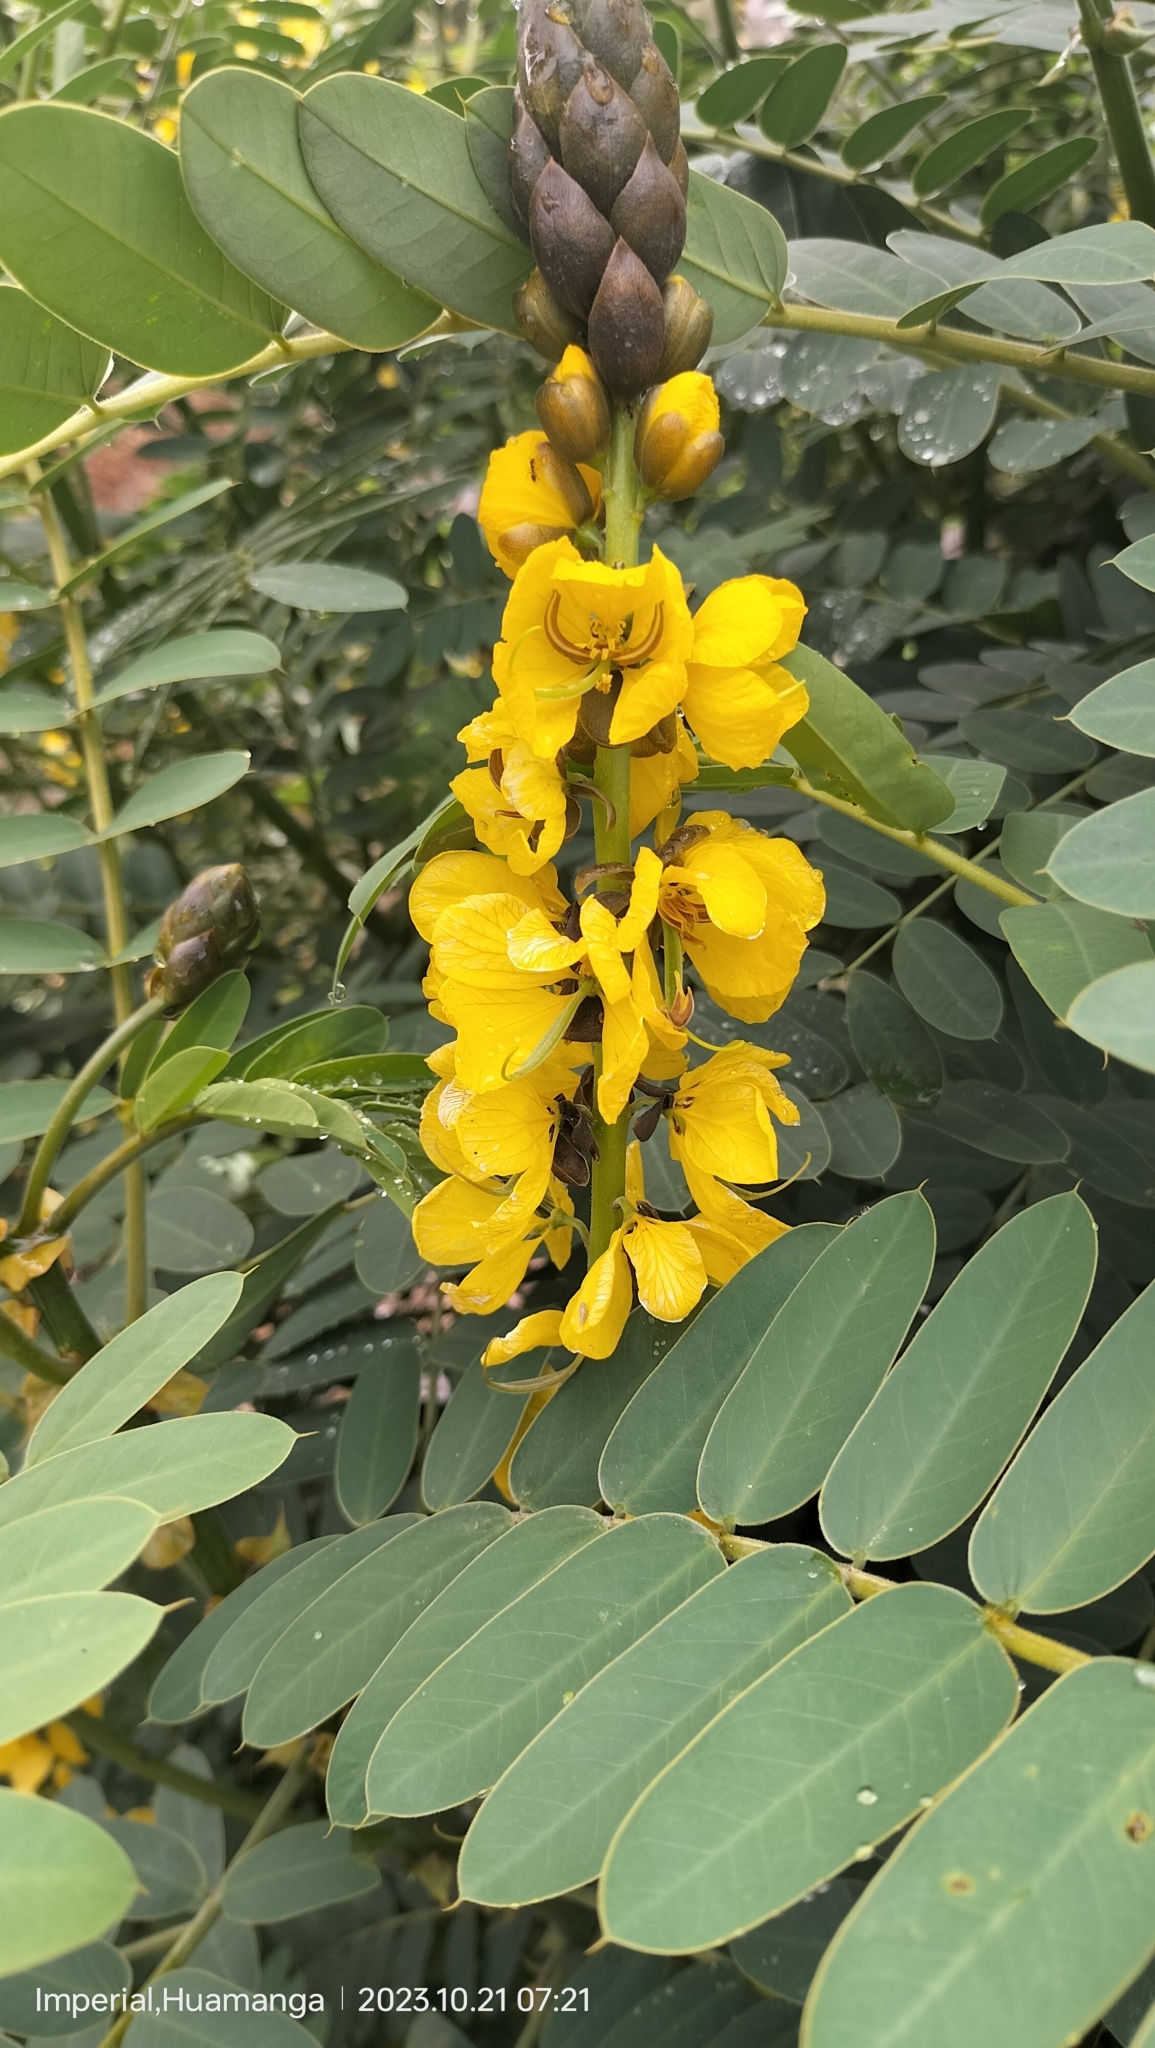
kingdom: Plantae
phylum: Tracheophyta
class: Magnoliopsida
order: Fabales
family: Fabaceae
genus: Senna
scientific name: Senna didymobotrya
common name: African senna
